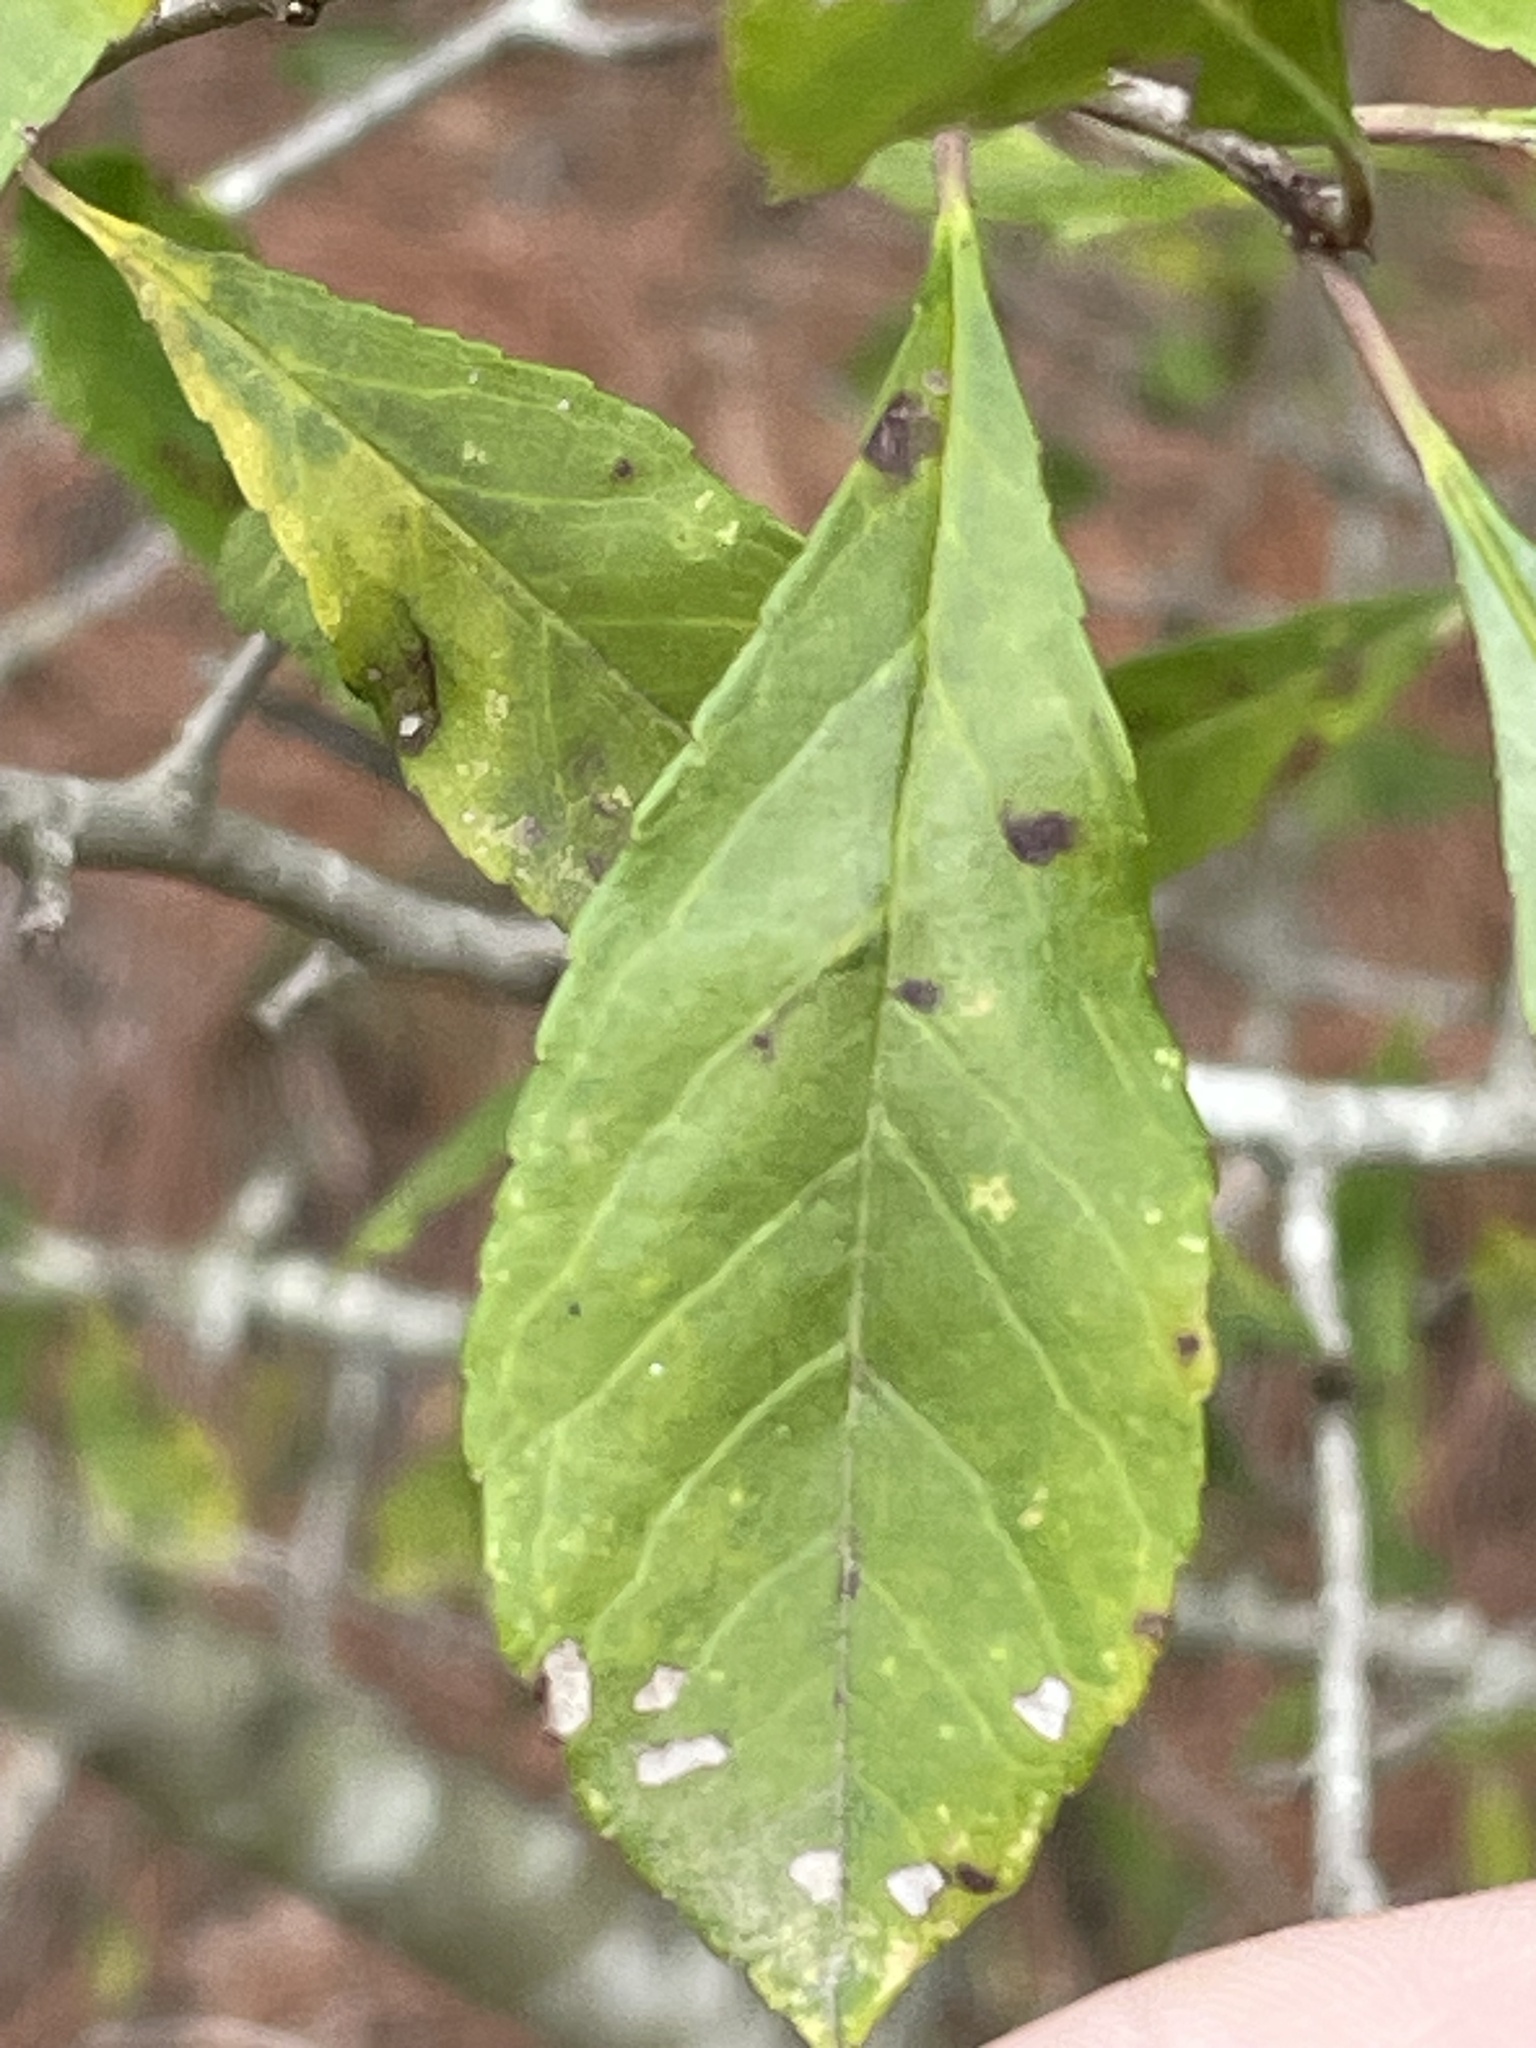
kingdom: Plantae
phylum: Tracheophyta
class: Magnoliopsida
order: Aquifoliales
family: Aquifoliaceae
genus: Ilex
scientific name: Ilex decidua
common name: Possum-haw
